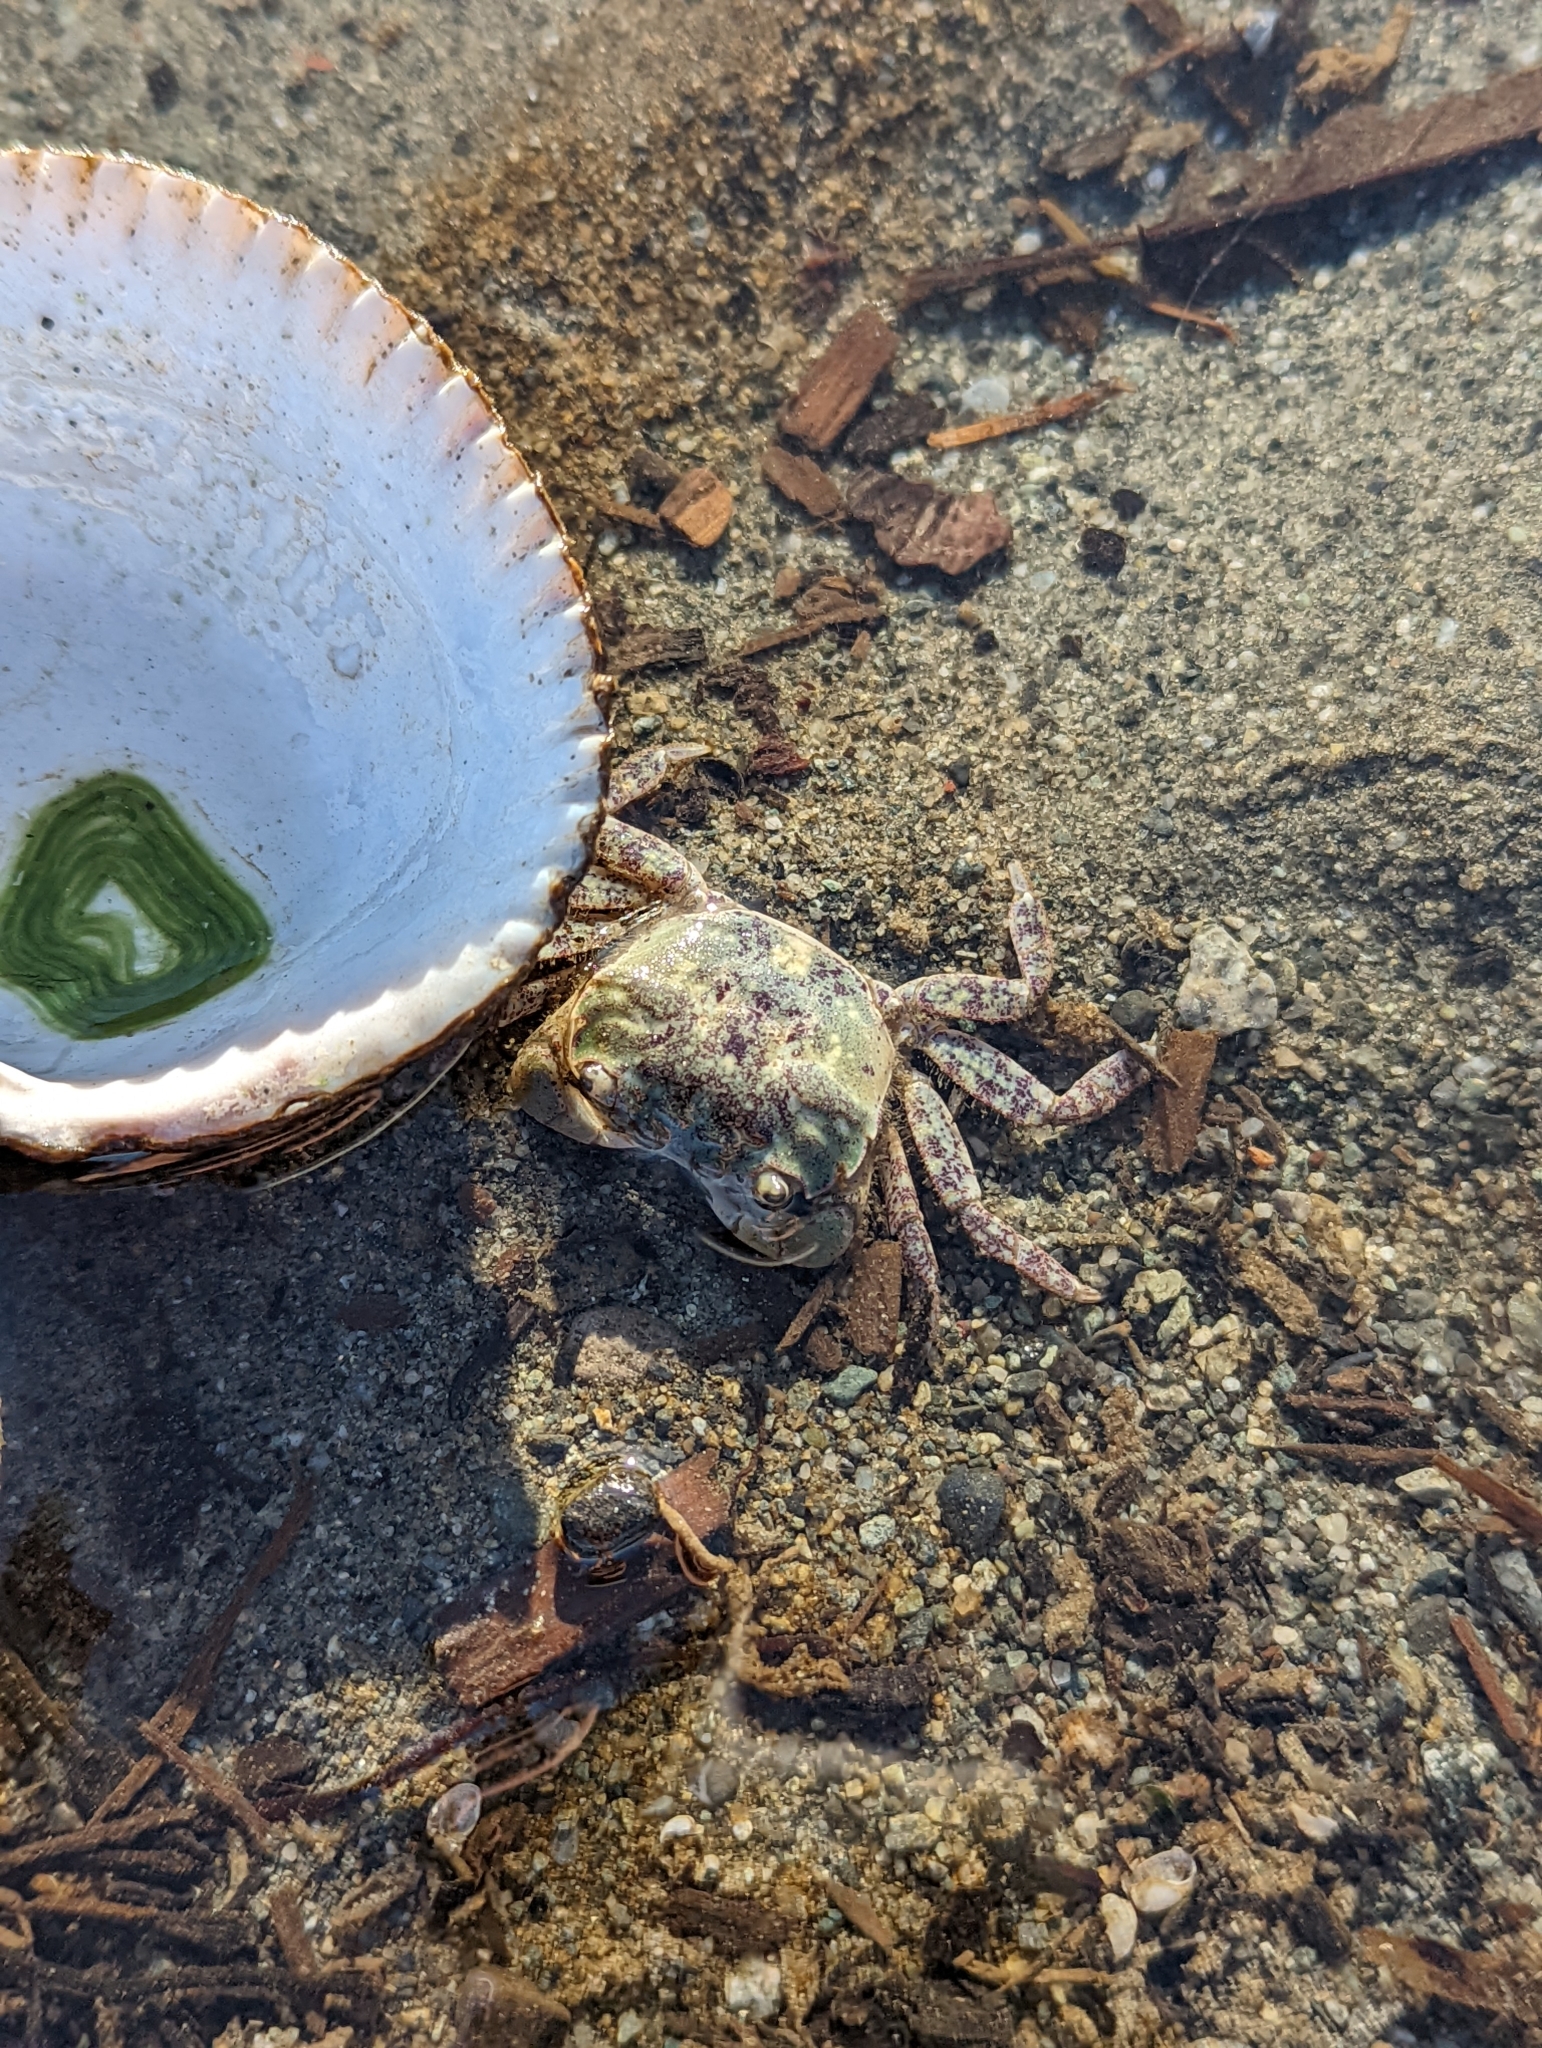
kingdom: Animalia
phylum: Arthropoda
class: Malacostraca
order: Decapoda
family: Varunidae
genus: Hemigrapsus
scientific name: Hemigrapsus oregonensis
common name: Yellow shore crab
